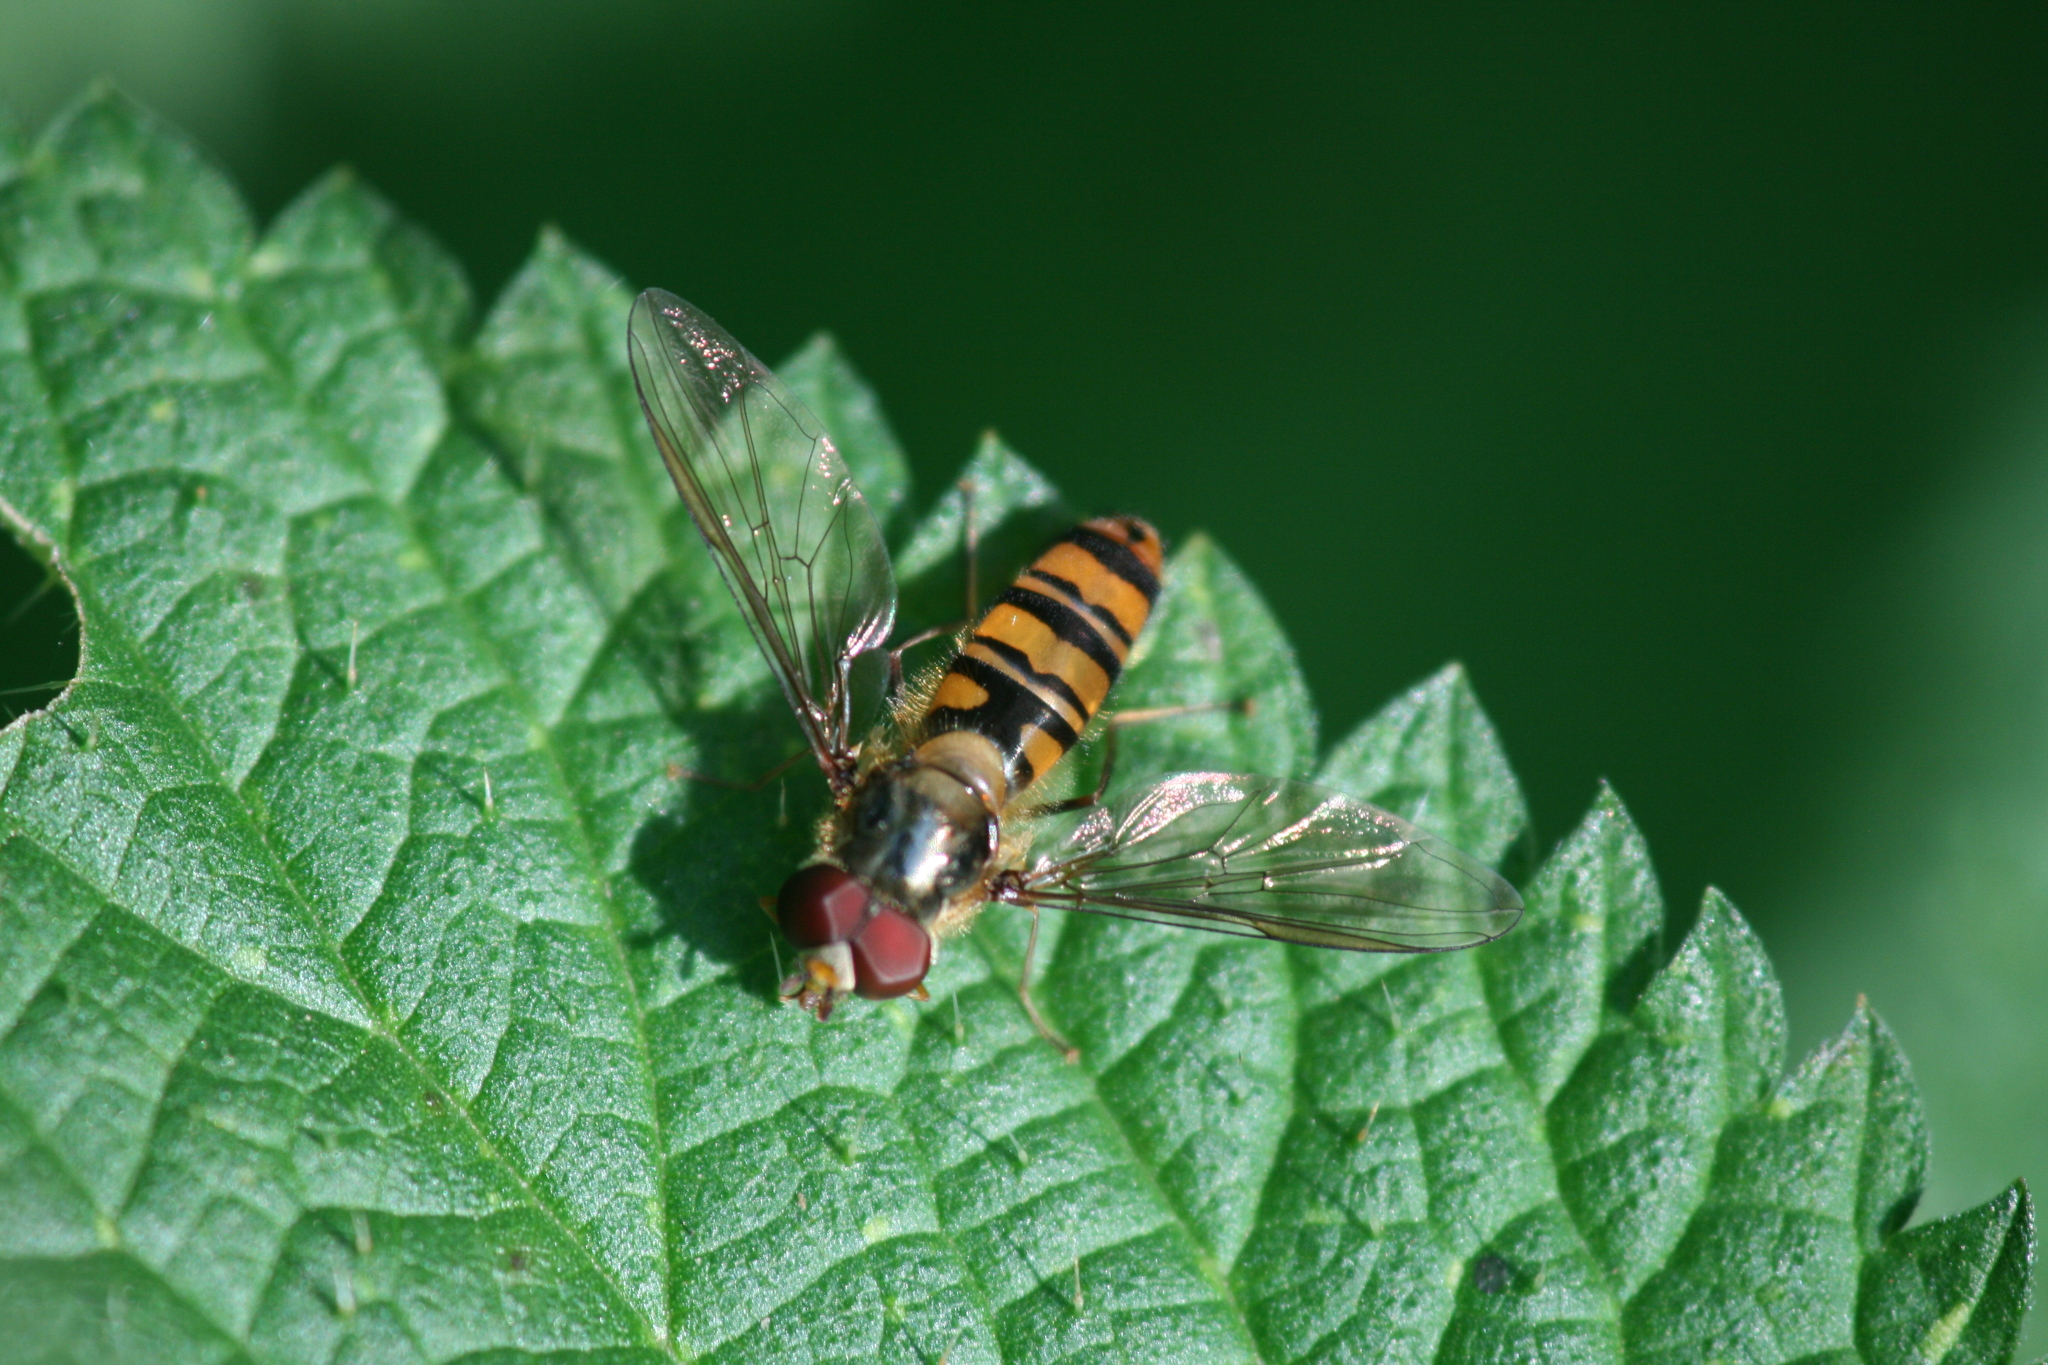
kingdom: Animalia
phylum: Arthropoda
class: Insecta
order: Diptera
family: Syrphidae
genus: Episyrphus
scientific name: Episyrphus balteatus
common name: Marmalade hoverfly
